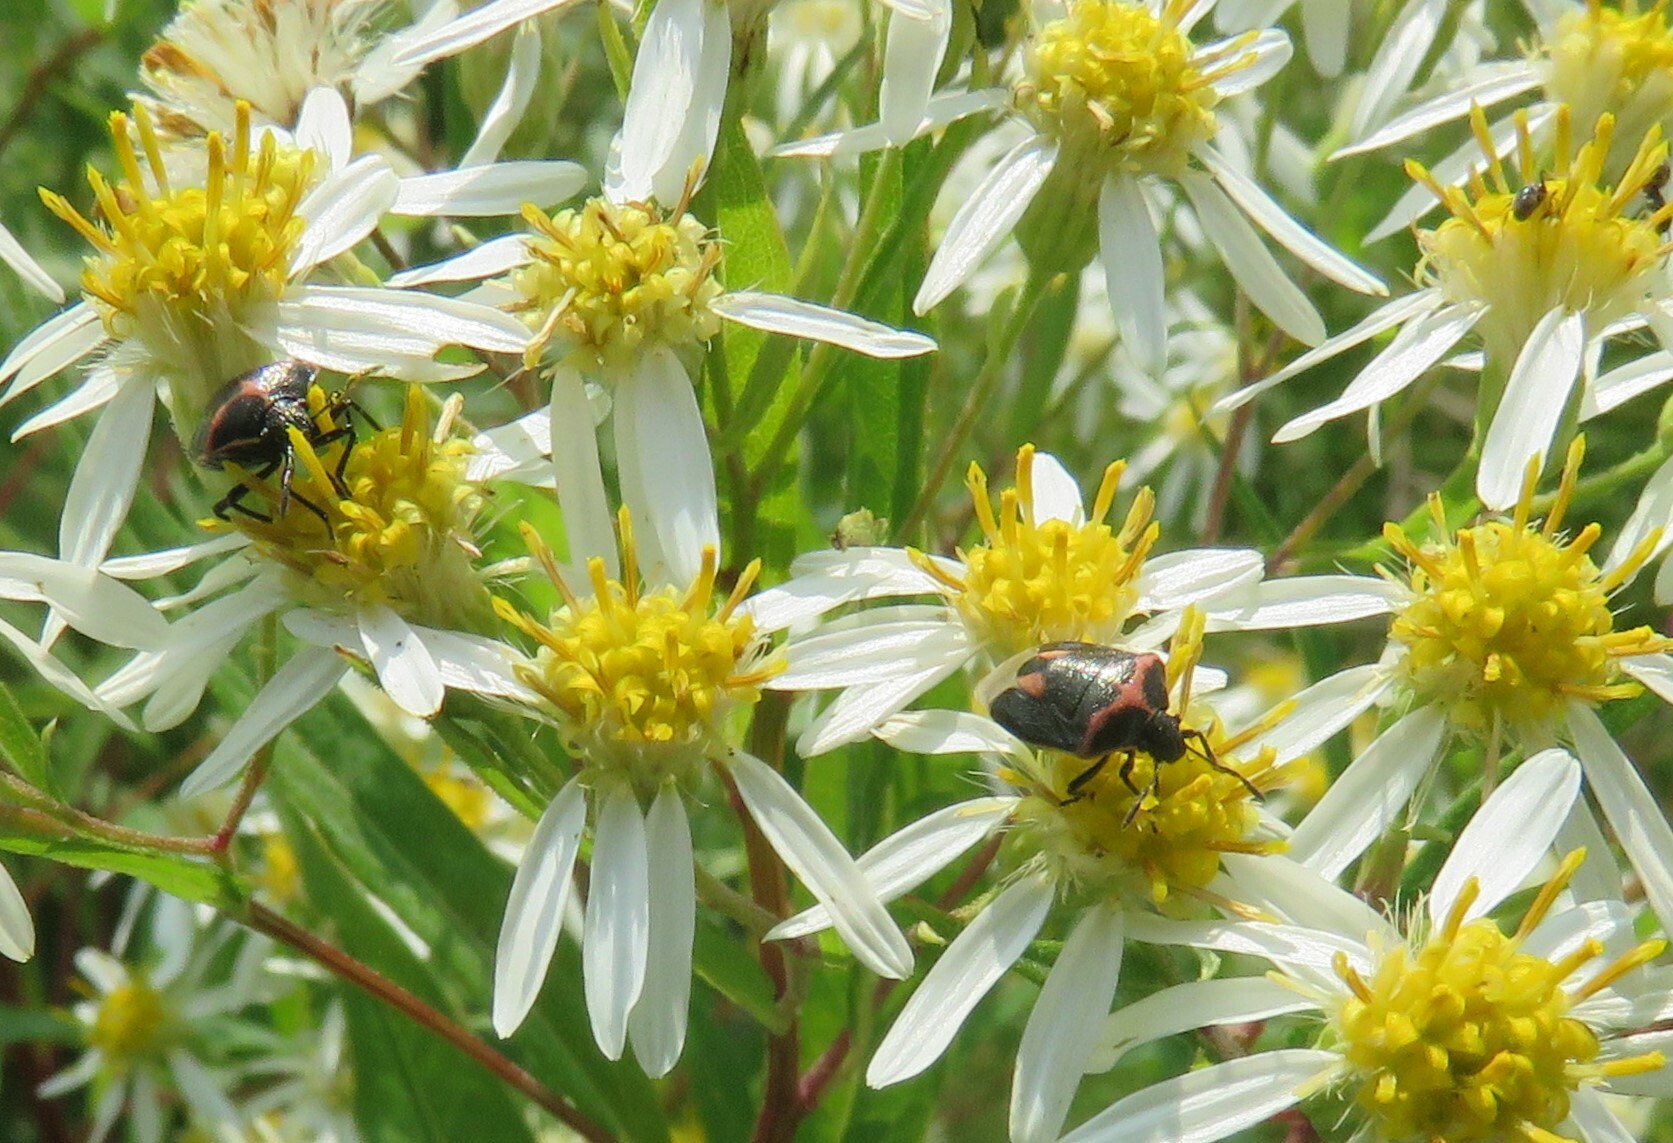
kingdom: Animalia
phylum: Arthropoda
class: Insecta
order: Hemiptera
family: Pentatomidae
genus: Cosmopepla
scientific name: Cosmopepla lintneriana
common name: Twice-stabbed stink bug
